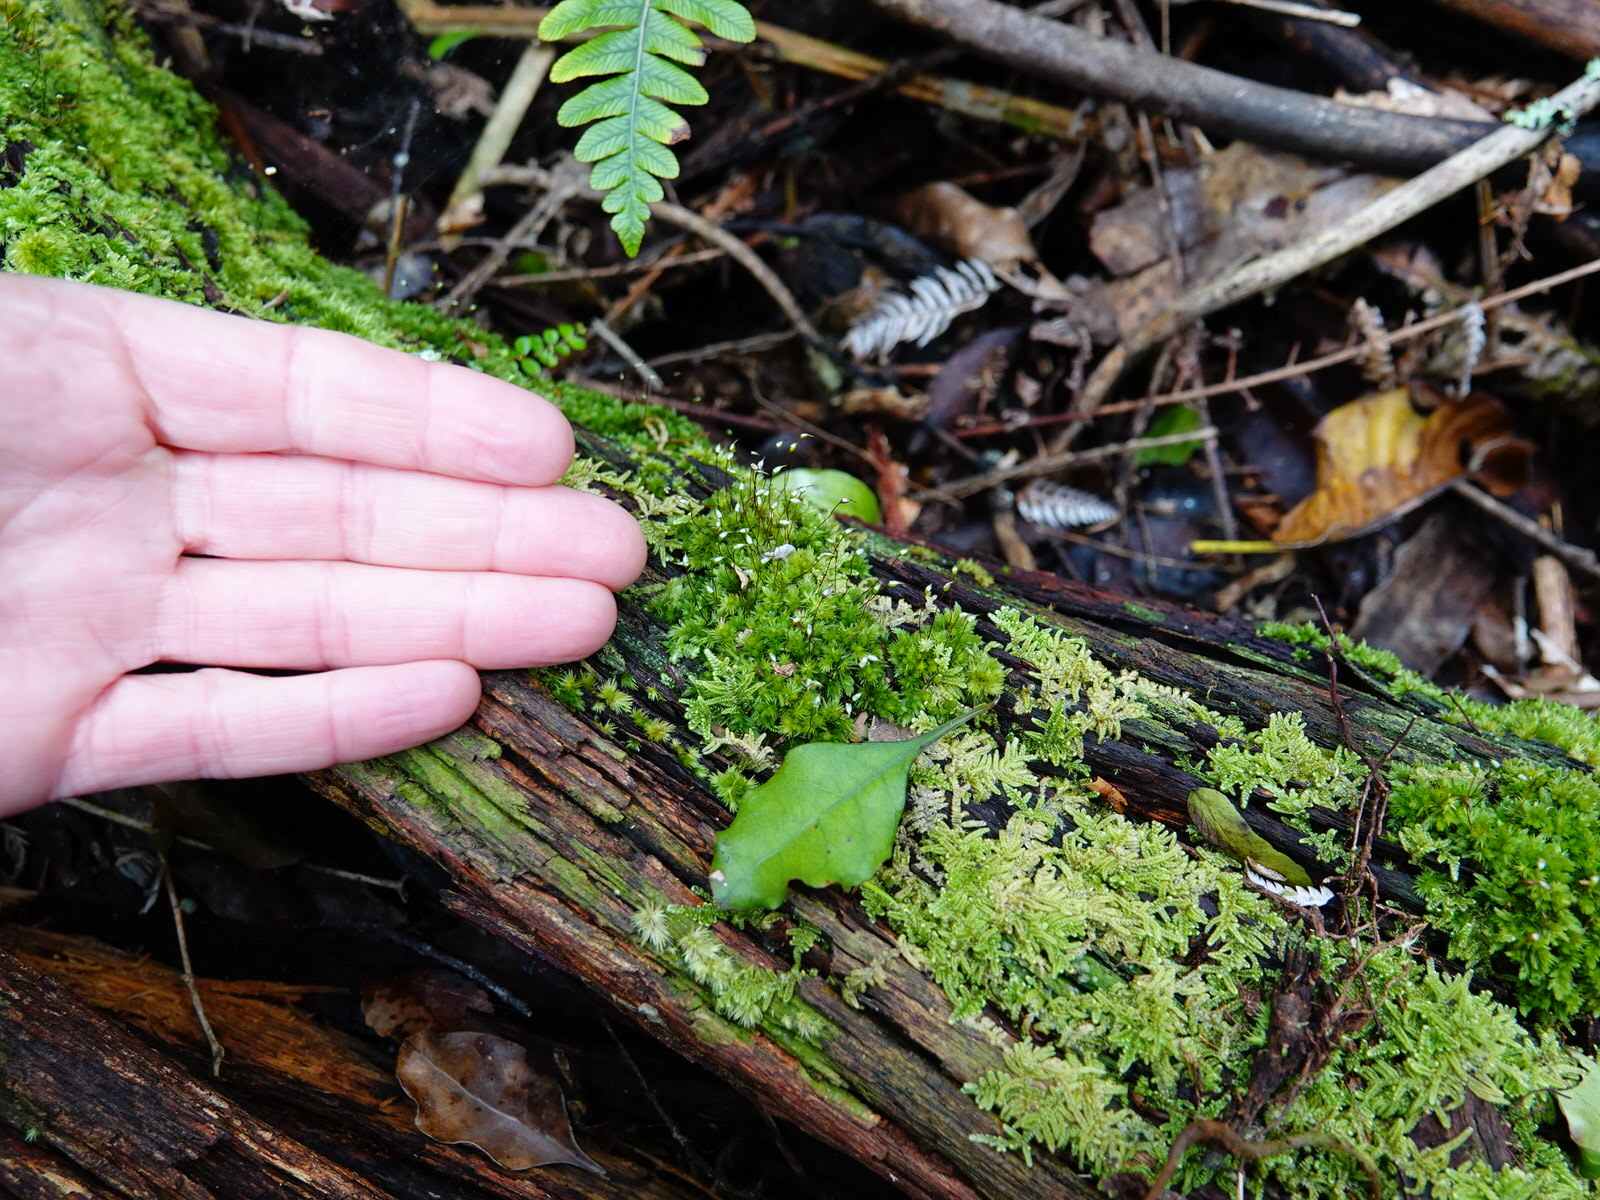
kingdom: Plantae
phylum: Bryophyta
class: Bryopsida
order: Dicranales
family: Leucobryaceae
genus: Leucobryum
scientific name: Leucobryum javense
